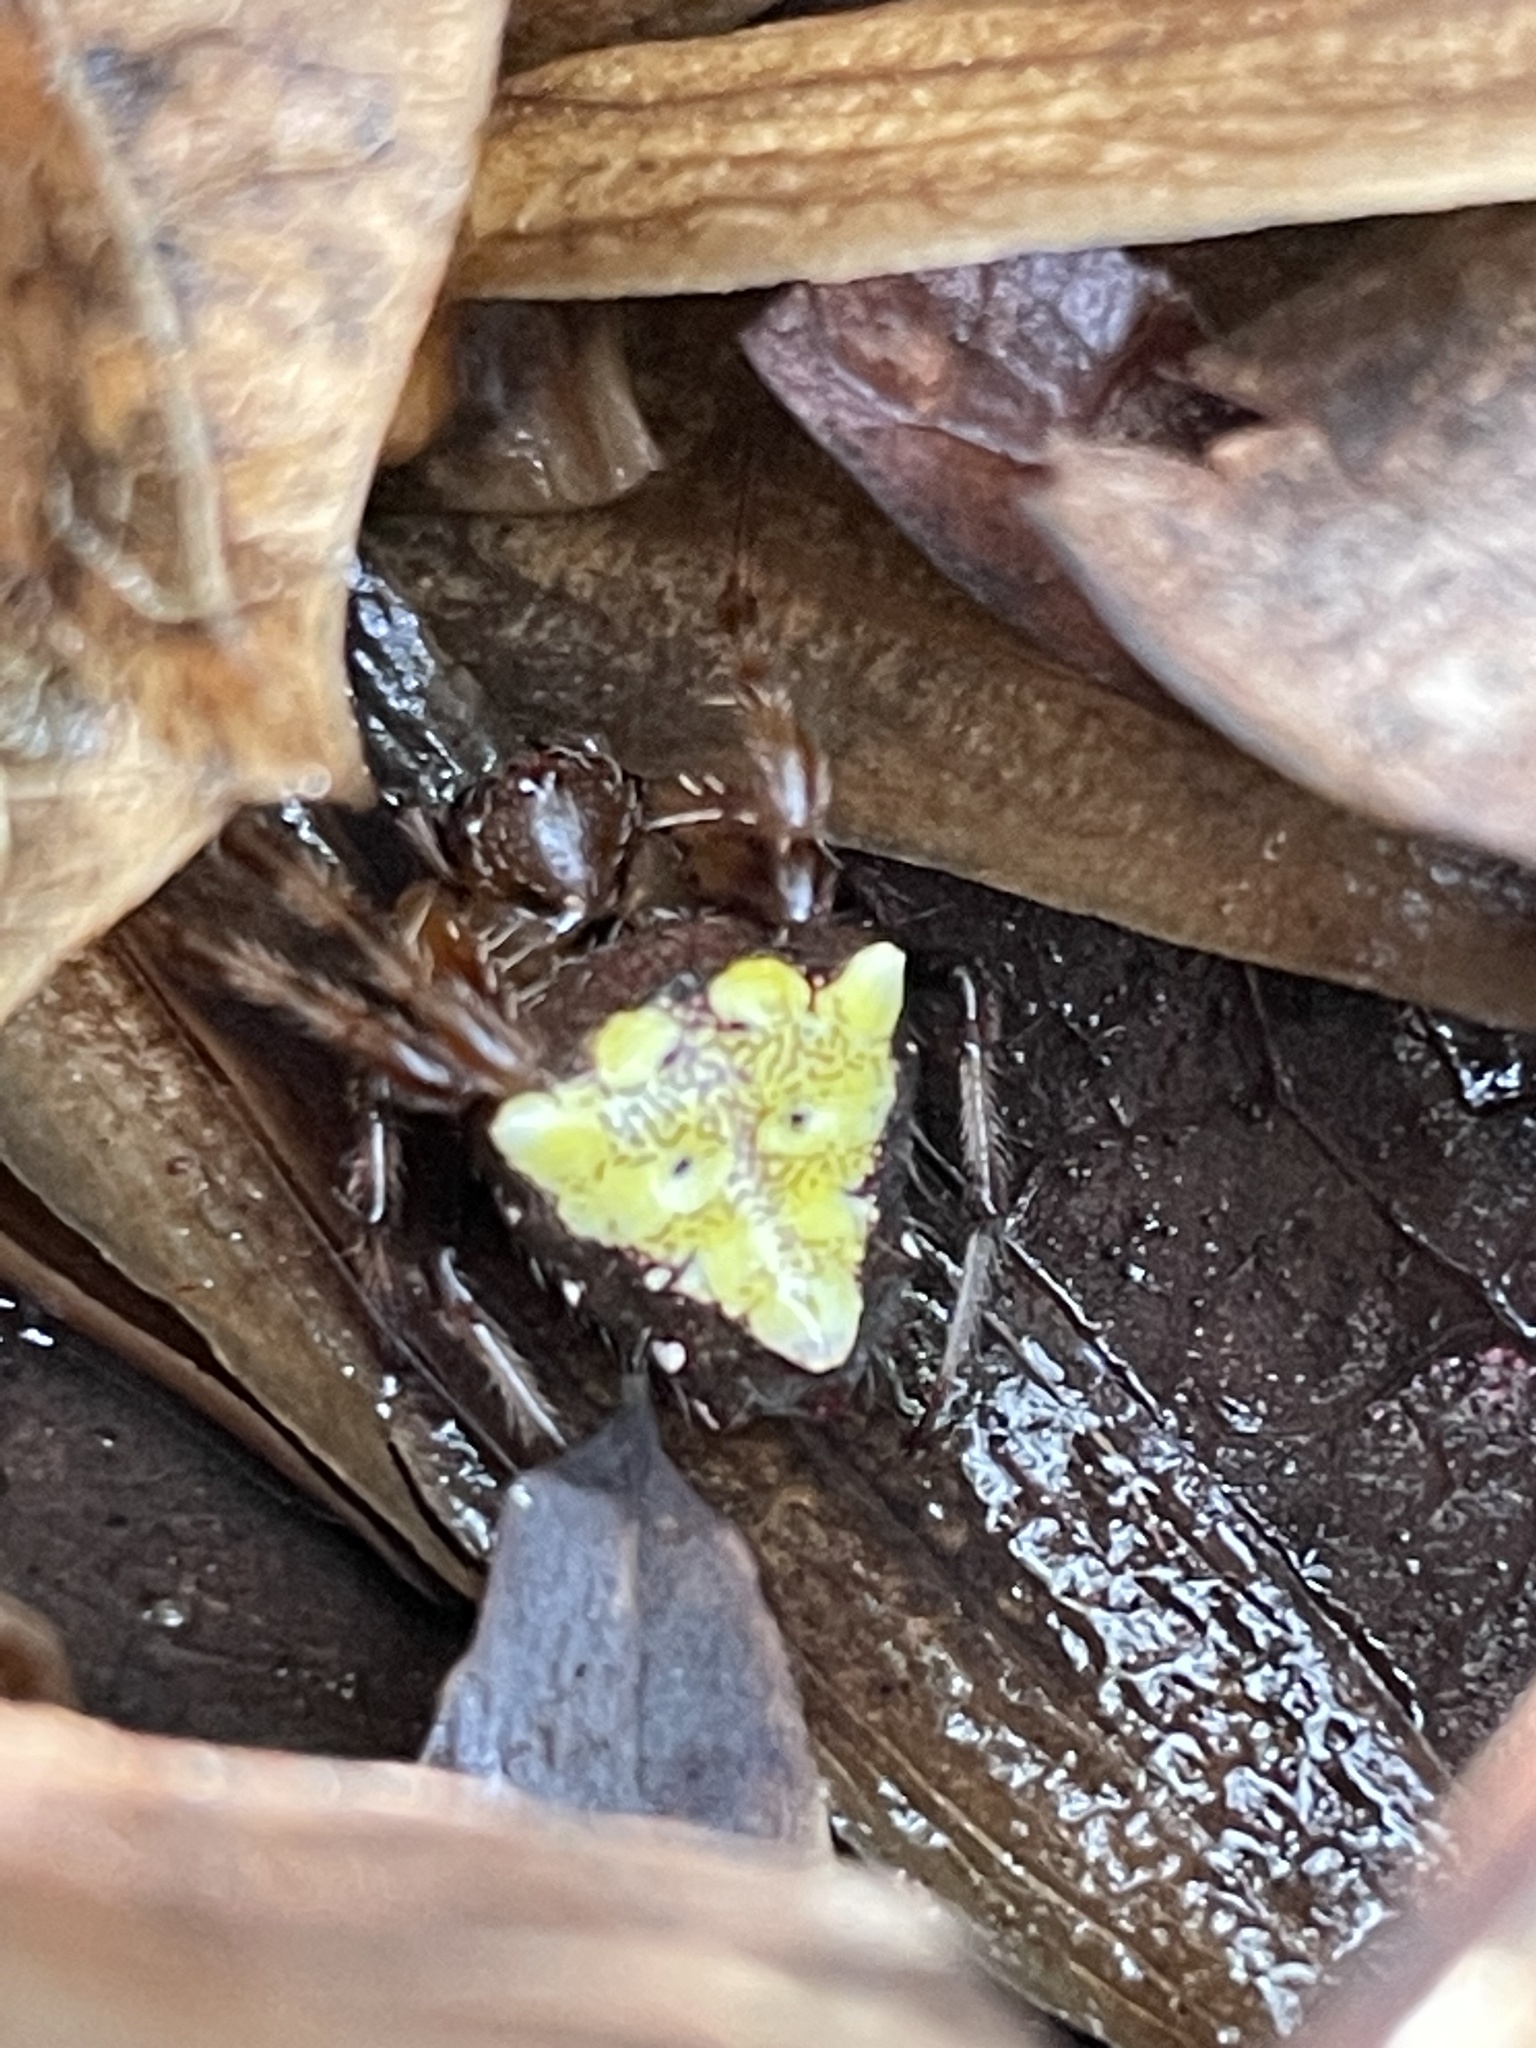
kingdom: Animalia
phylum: Arthropoda
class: Arachnida
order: Araneae
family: Araneidae
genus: Verrucosa
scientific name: Verrucosa arenata
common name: Orb weavers
